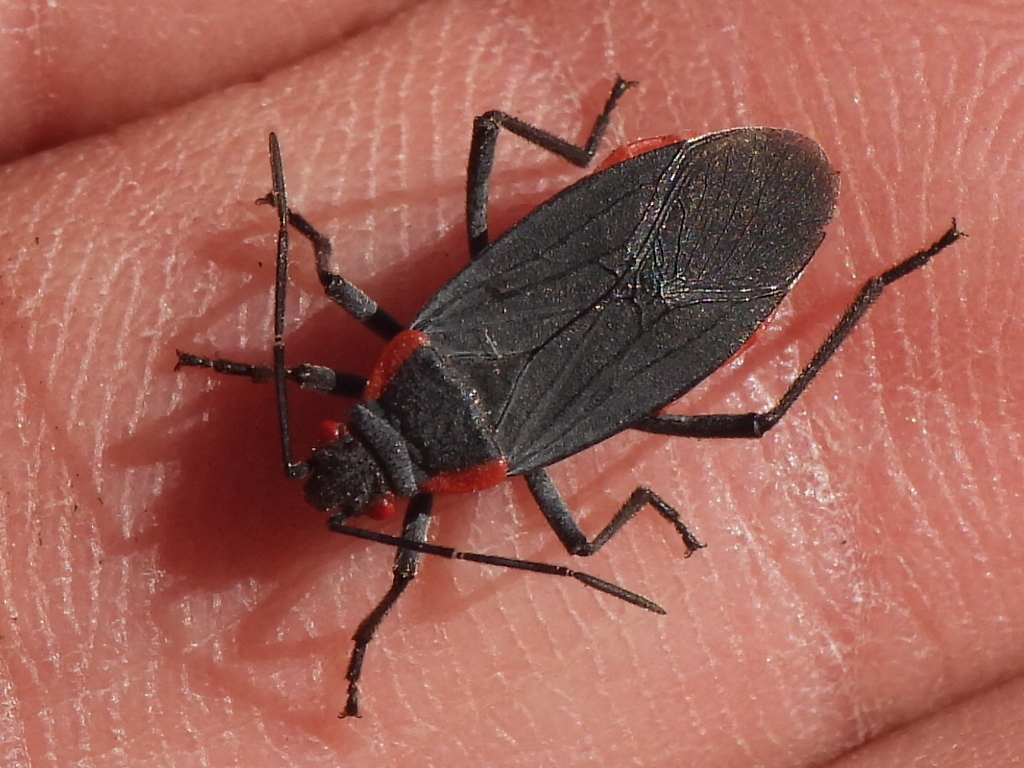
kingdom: Animalia
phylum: Arthropoda
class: Insecta
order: Hemiptera
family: Rhopalidae
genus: Jadera
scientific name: Jadera haematoloma
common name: Red-shouldered bug
